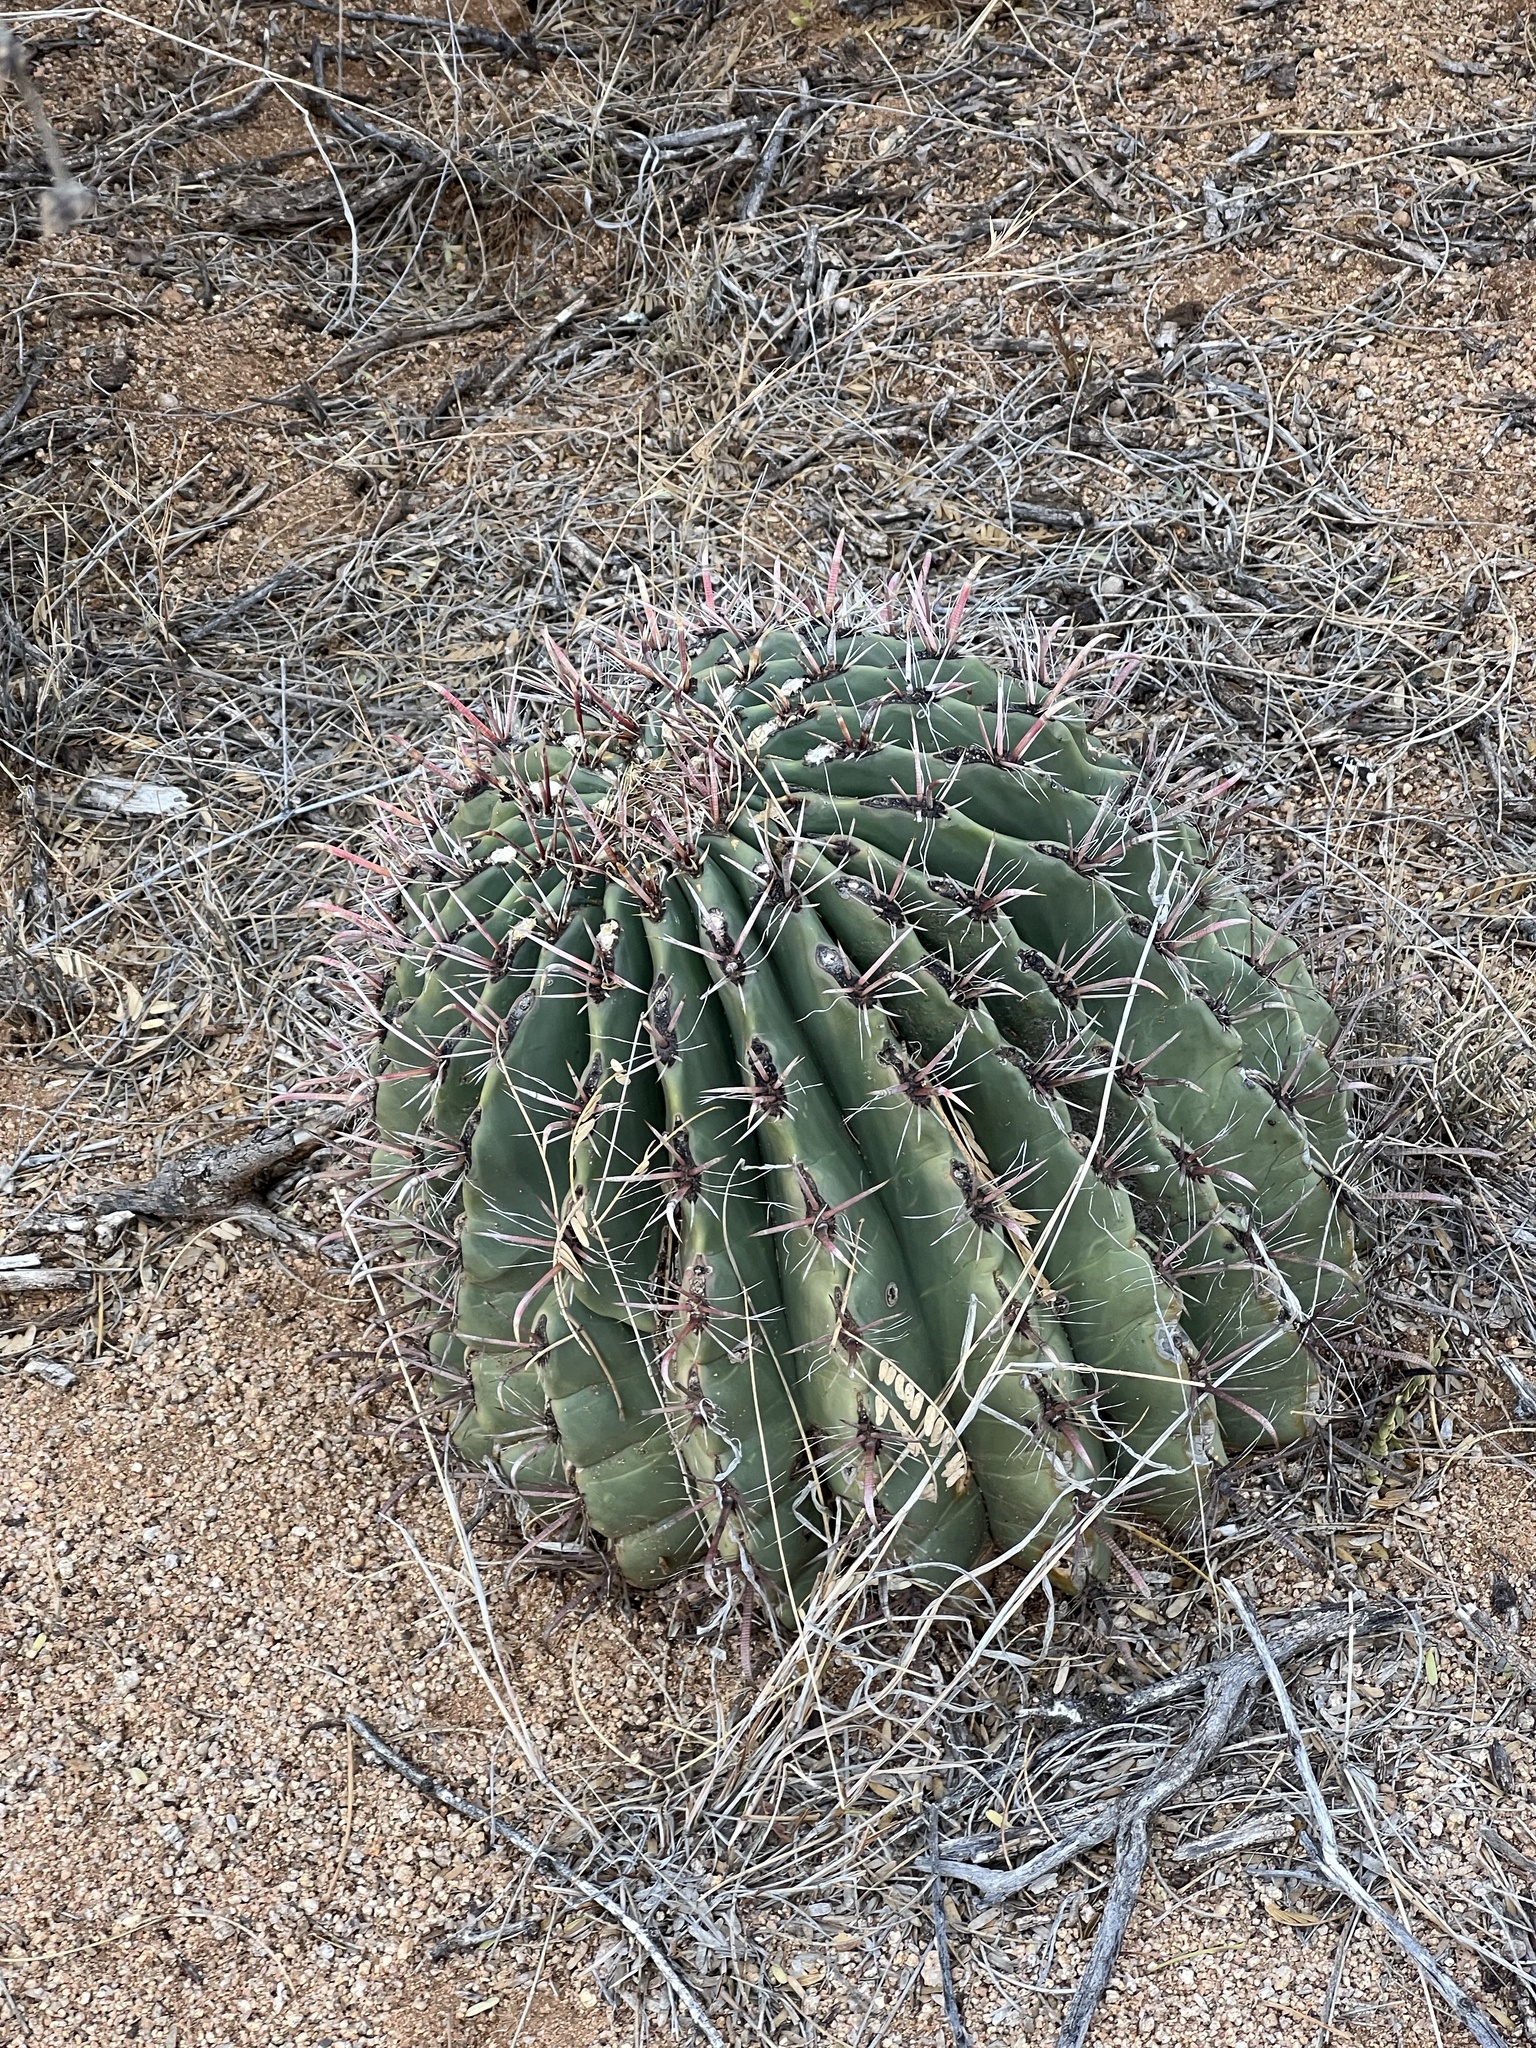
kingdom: Plantae
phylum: Tracheophyta
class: Magnoliopsida
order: Caryophyllales
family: Cactaceae
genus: Ferocactus
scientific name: Ferocactus wislizeni
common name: Candy barrel cactus
